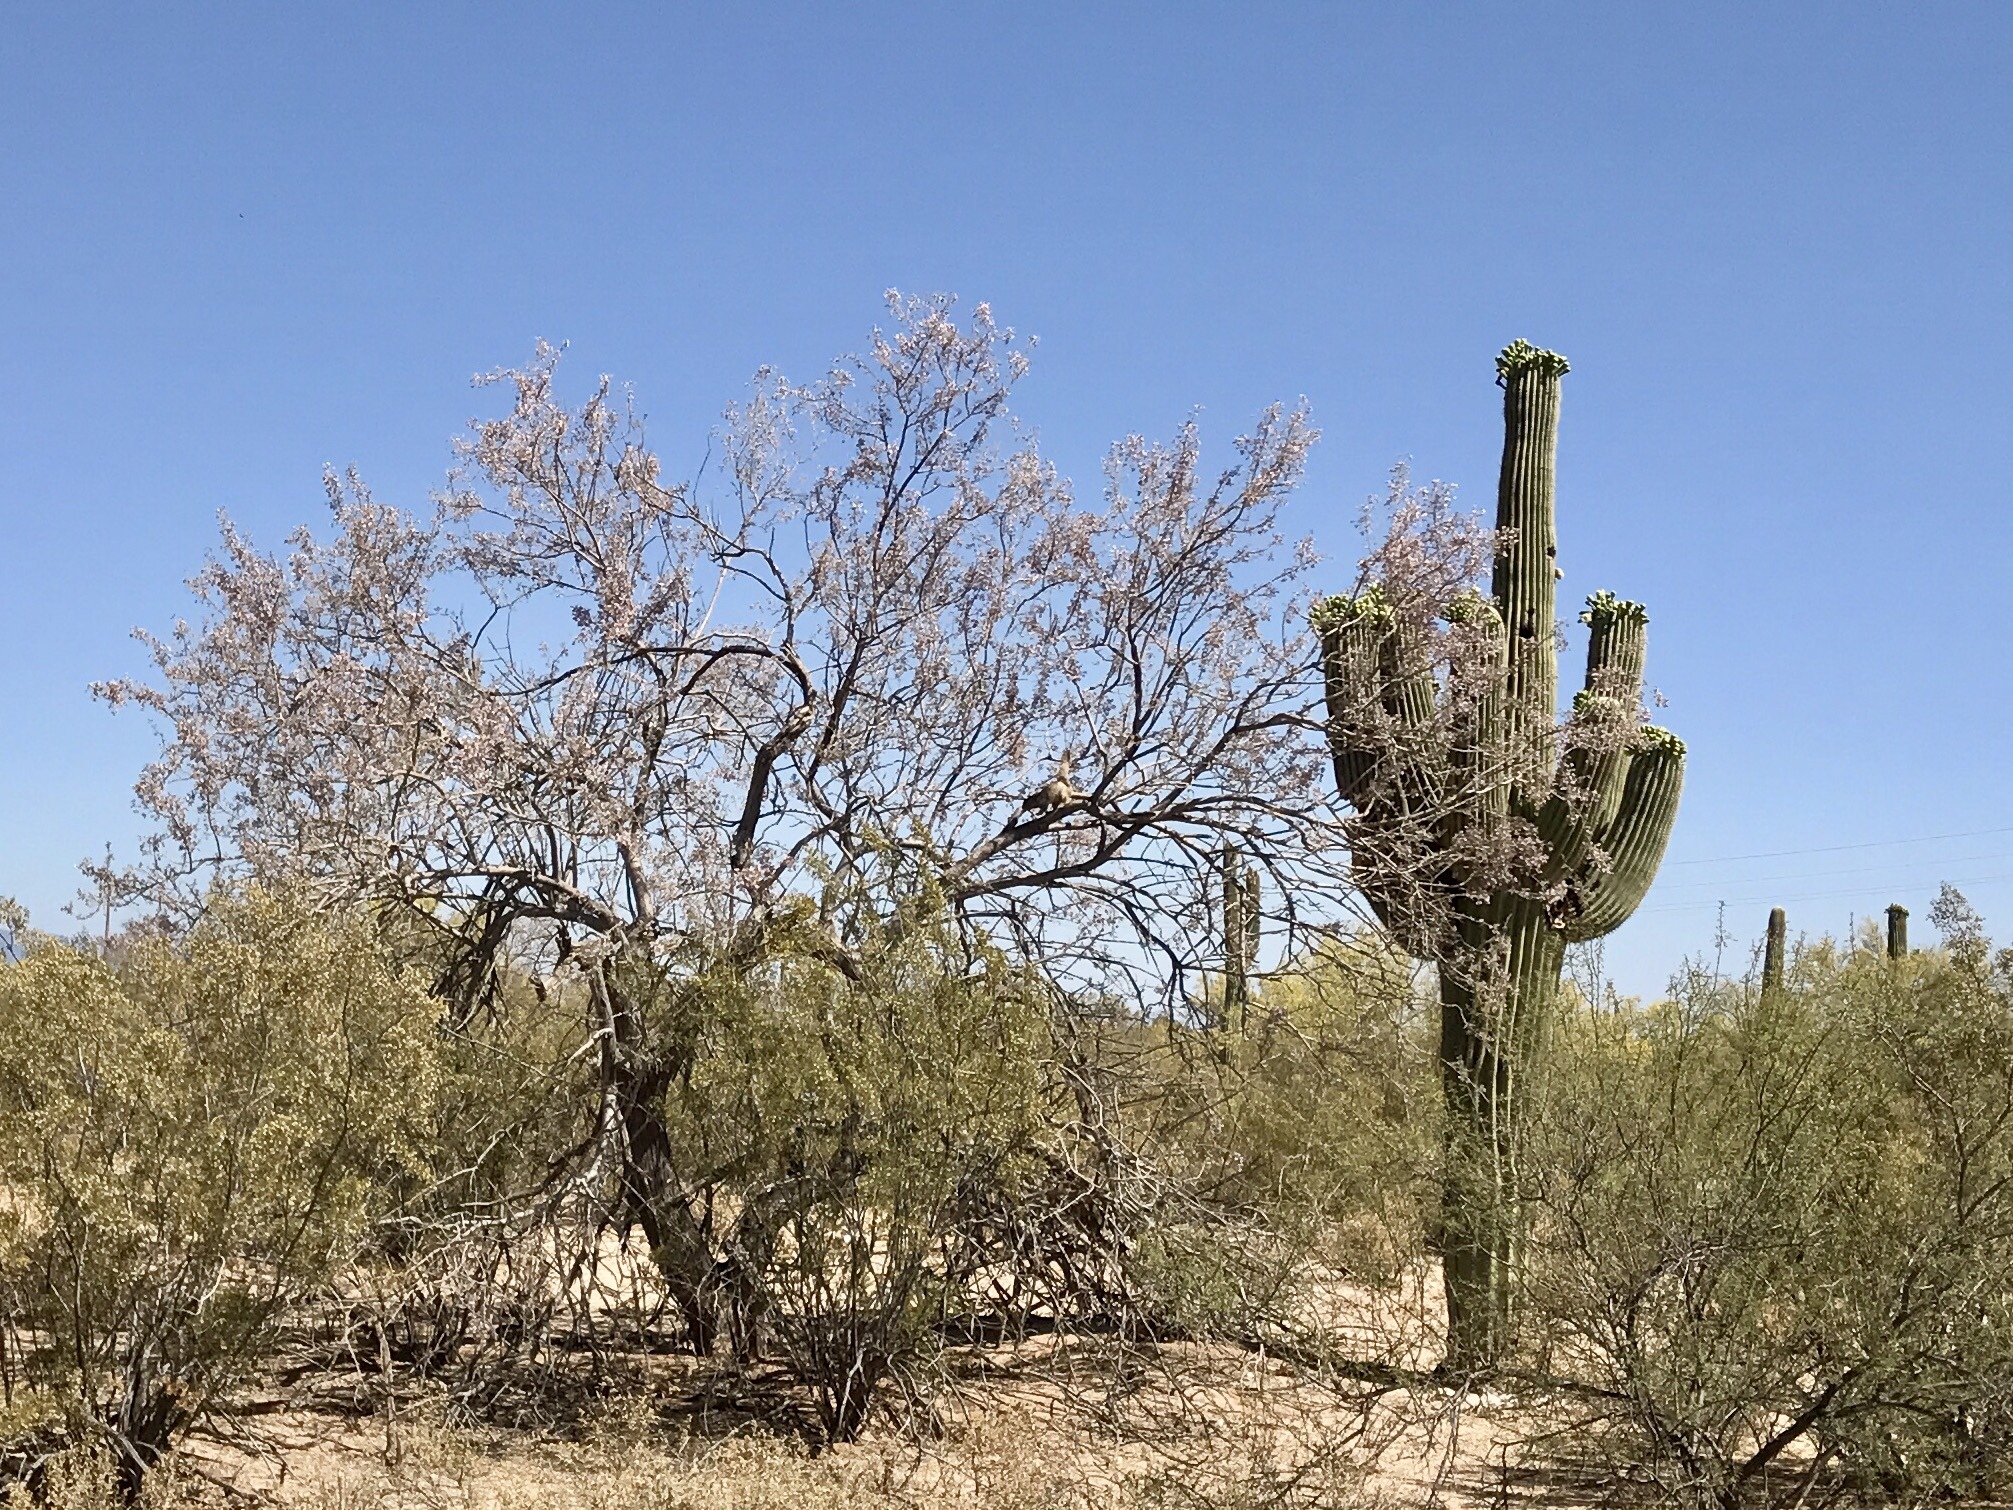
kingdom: Plantae
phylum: Tracheophyta
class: Magnoliopsida
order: Fabales
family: Fabaceae
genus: Olneya
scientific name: Olneya tesota
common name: Desert ironwood
